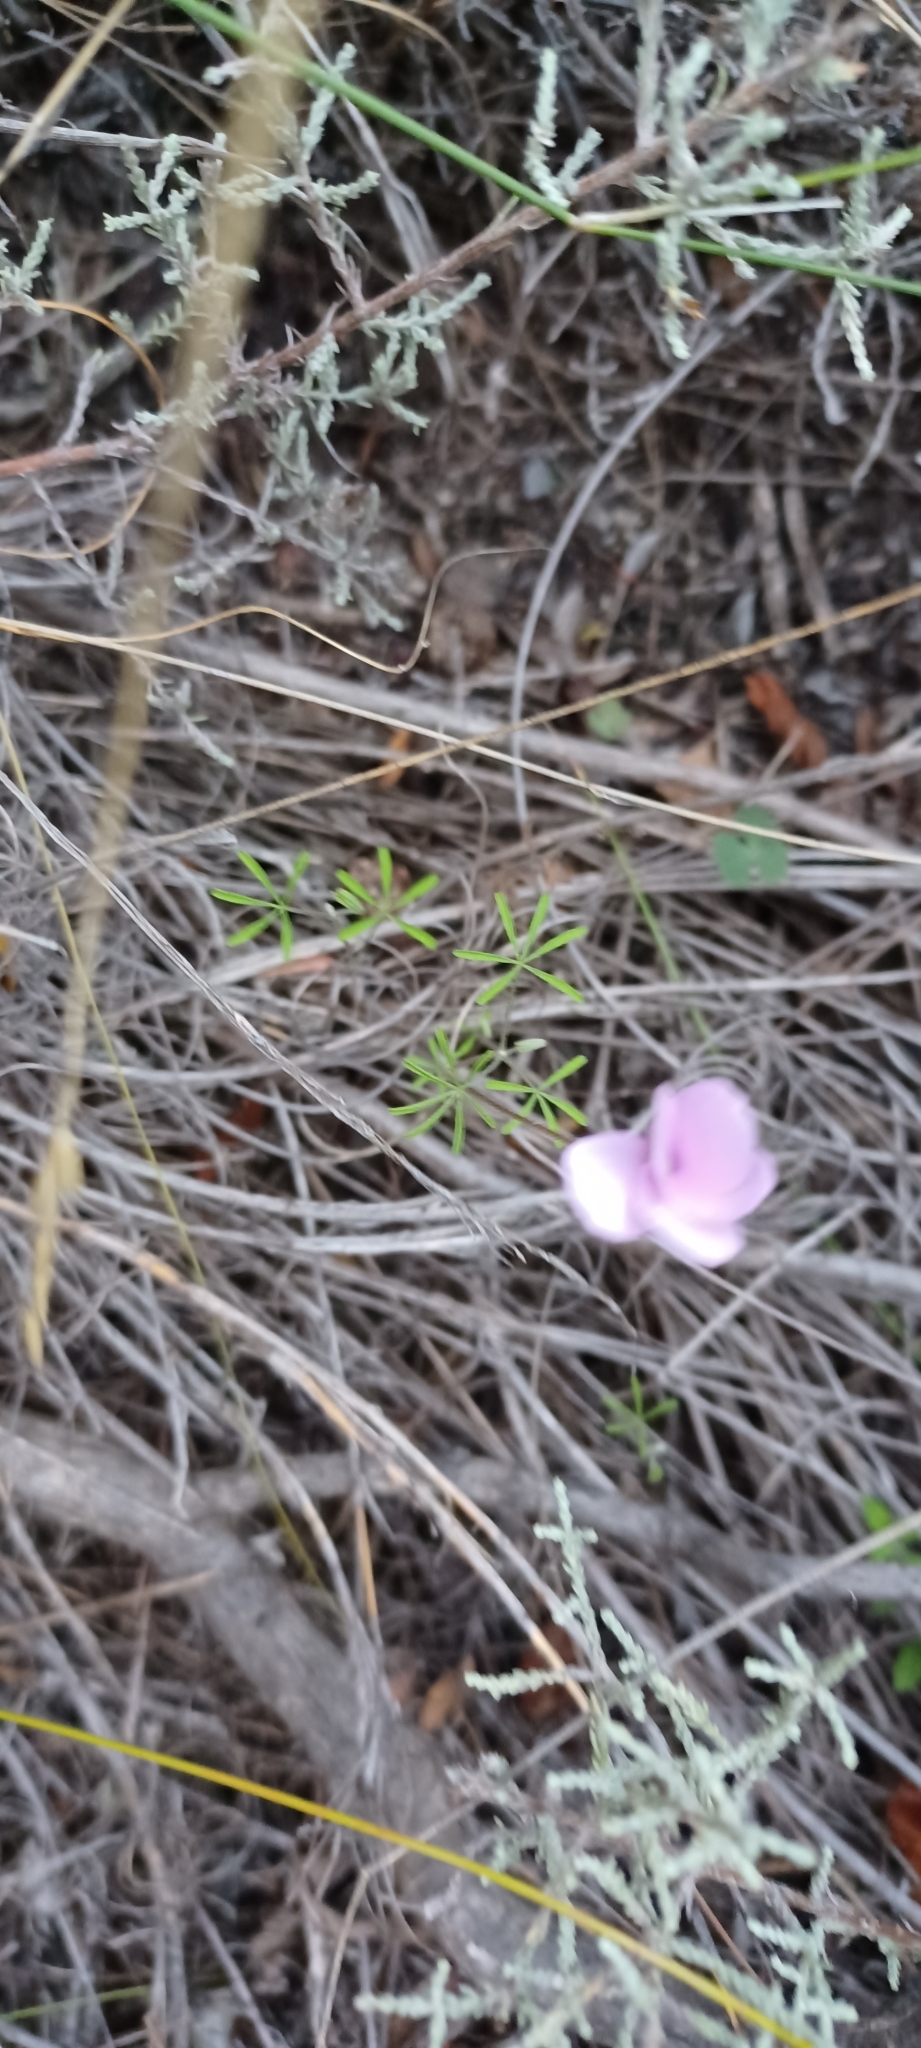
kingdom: Plantae
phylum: Tracheophyta
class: Magnoliopsida
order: Oxalidales
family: Oxalidaceae
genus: Oxalis
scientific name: Oxalis engleriana
